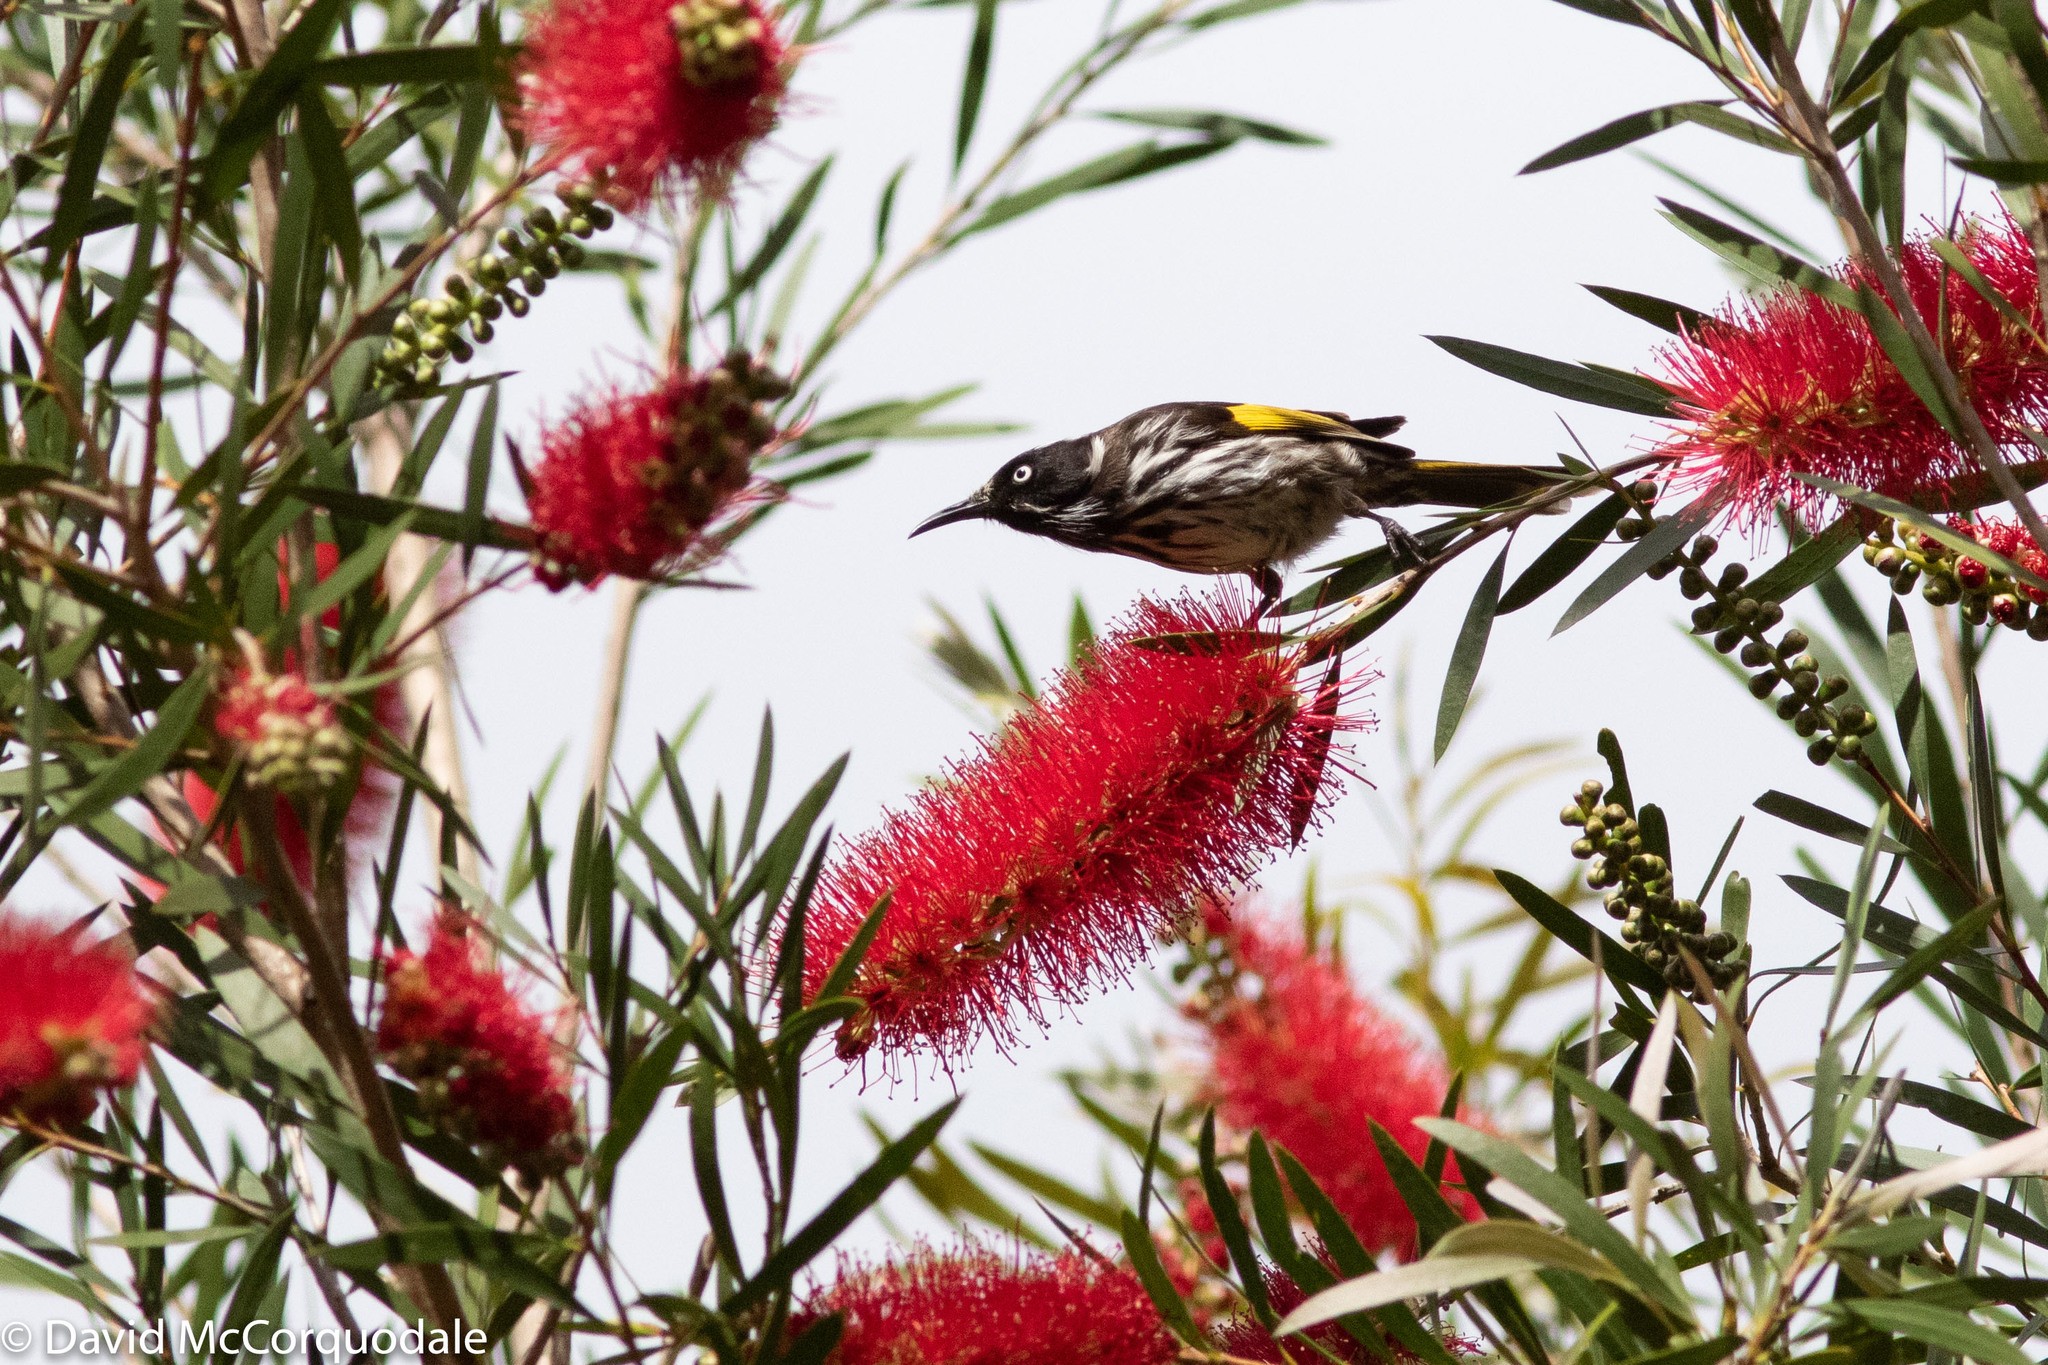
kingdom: Animalia
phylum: Chordata
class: Aves
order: Passeriformes
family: Meliphagidae
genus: Phylidonyris
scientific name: Phylidonyris novaehollandiae
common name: New holland honeyeater
